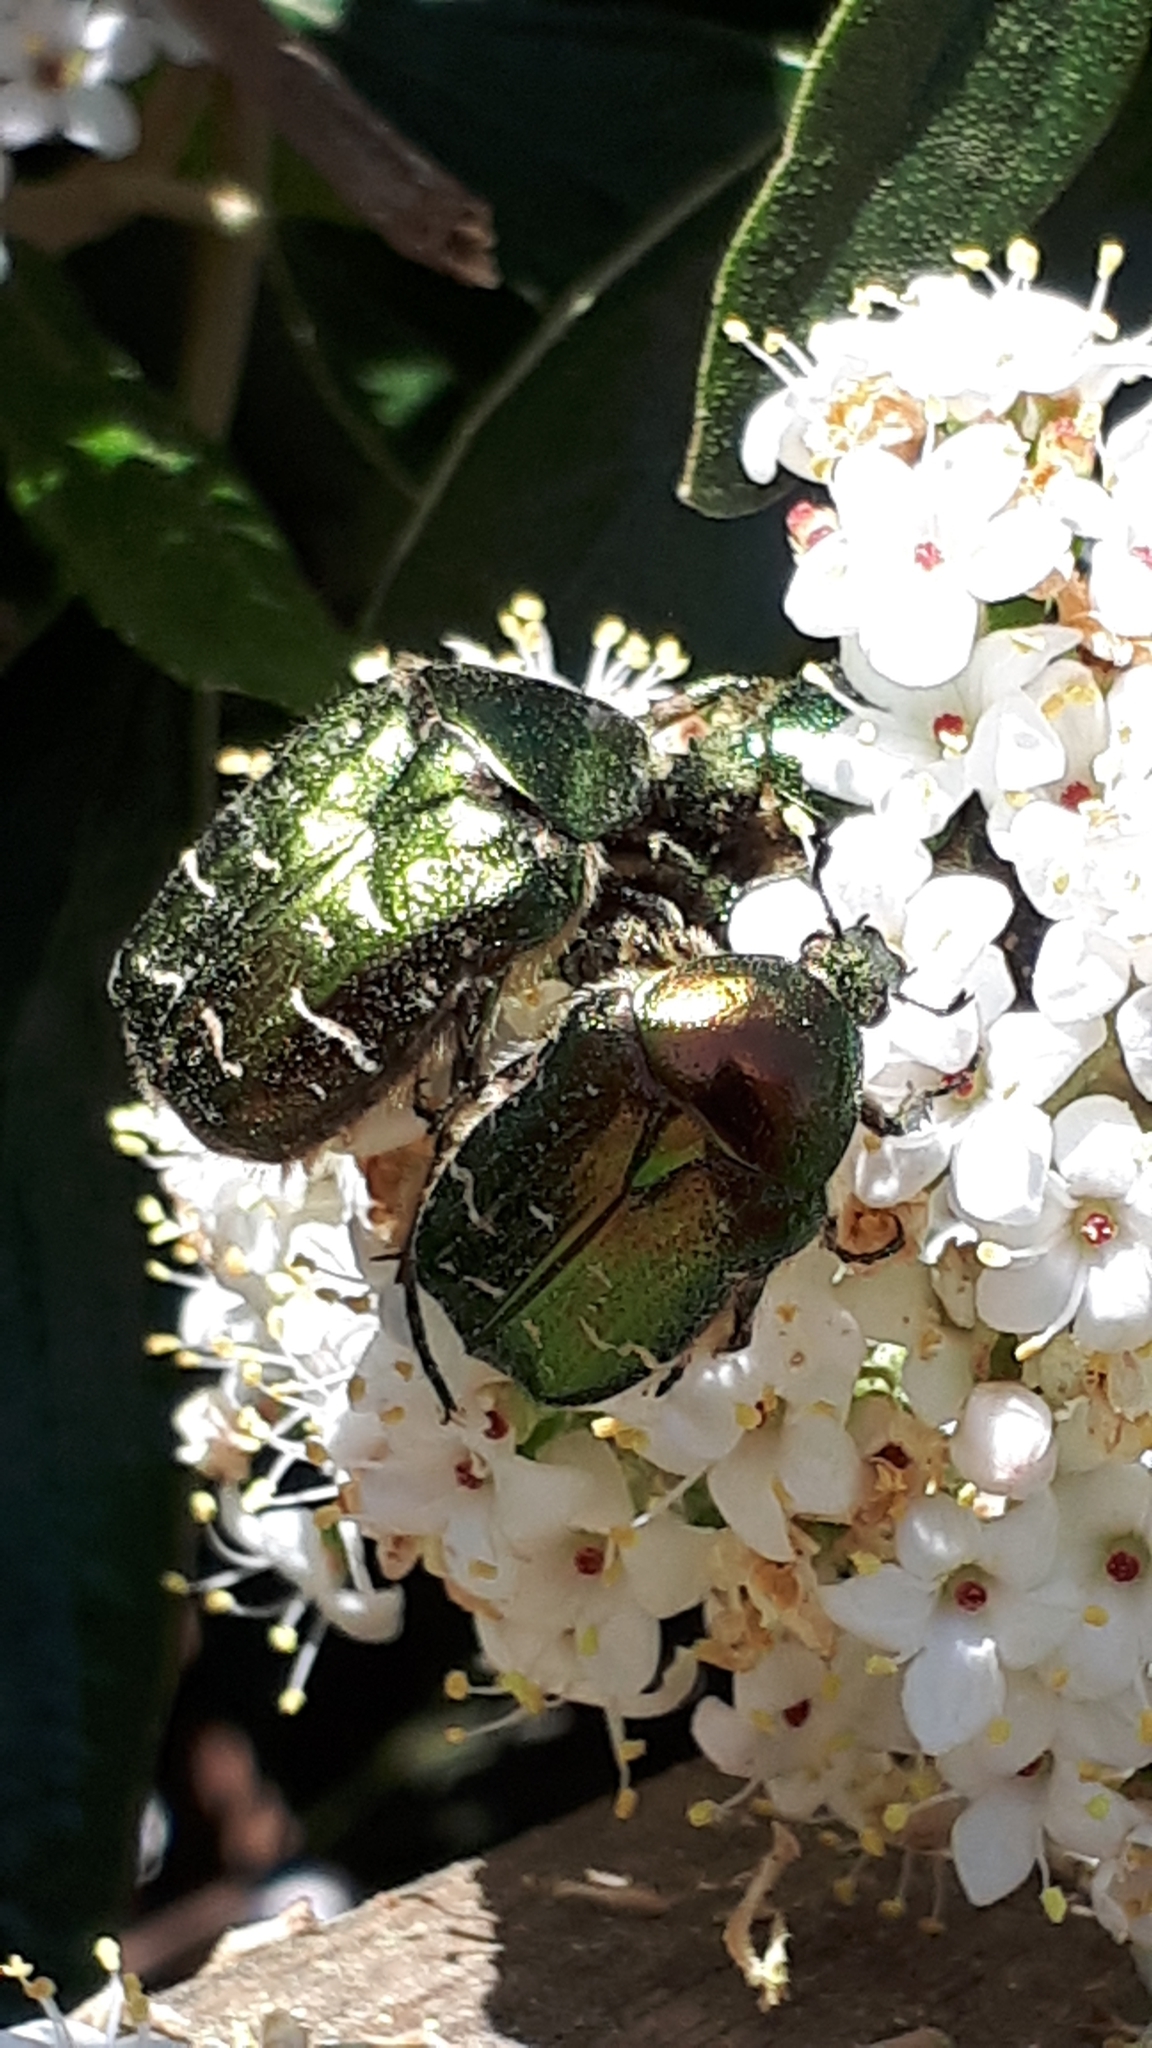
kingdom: Animalia
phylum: Arthropoda
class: Insecta
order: Coleoptera
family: Scarabaeidae
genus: Cetonia
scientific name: Cetonia aurata
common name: Rose chafer
